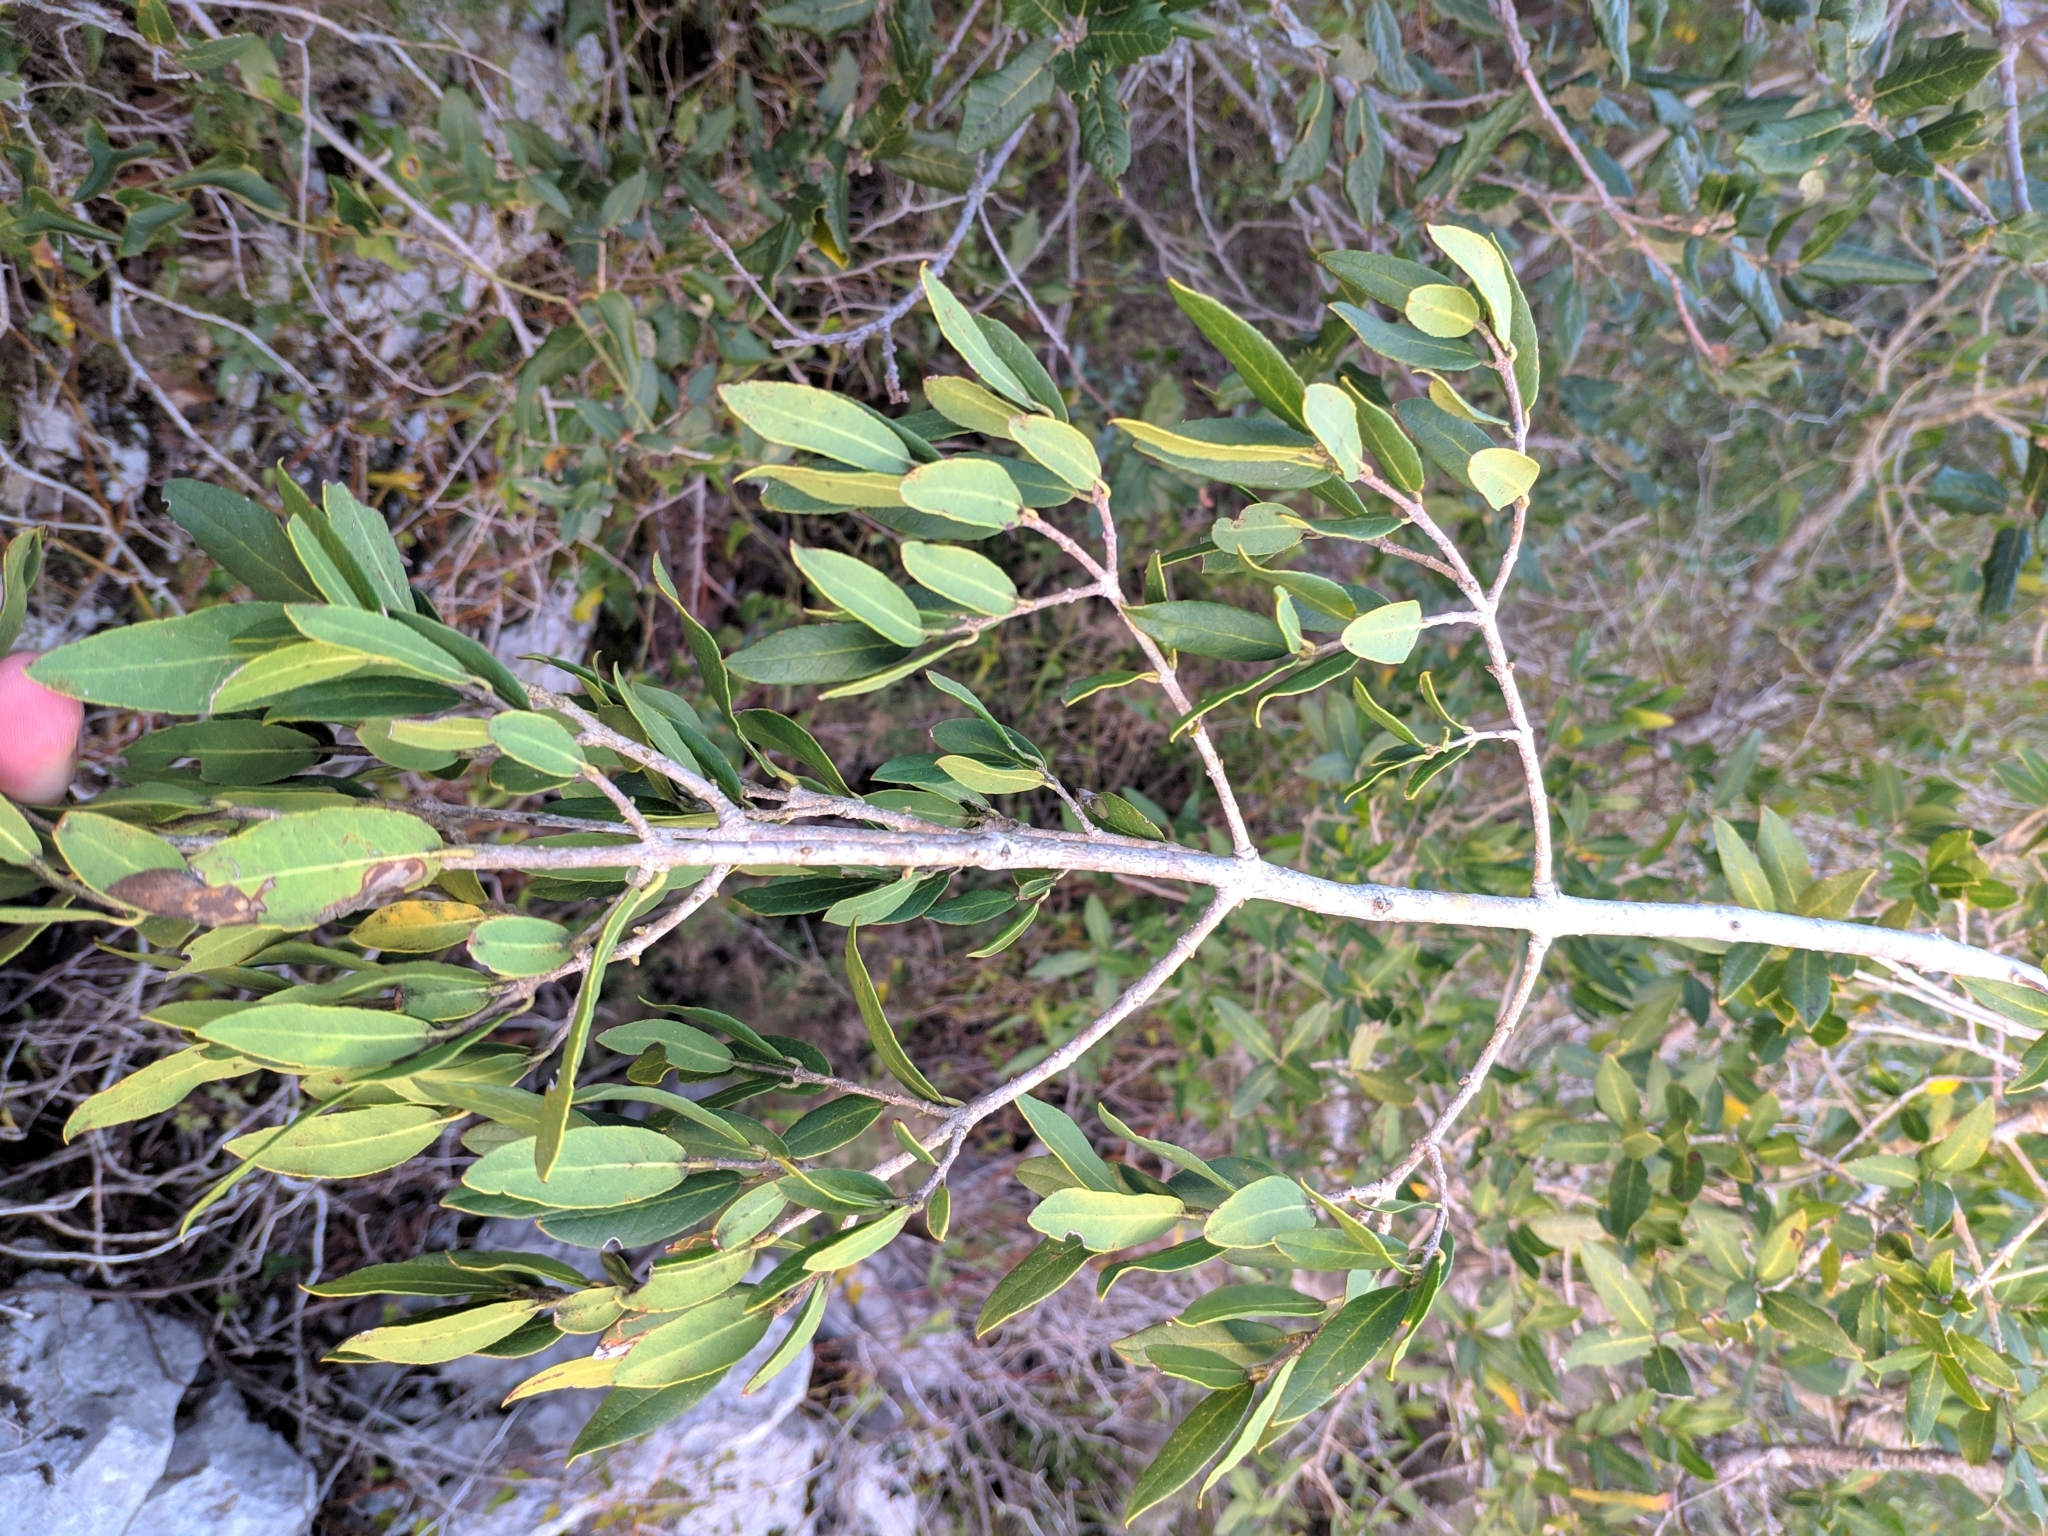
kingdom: Plantae
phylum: Tracheophyta
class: Magnoliopsida
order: Lamiales
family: Oleaceae
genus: Phillyrea
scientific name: Phillyrea latifolia
